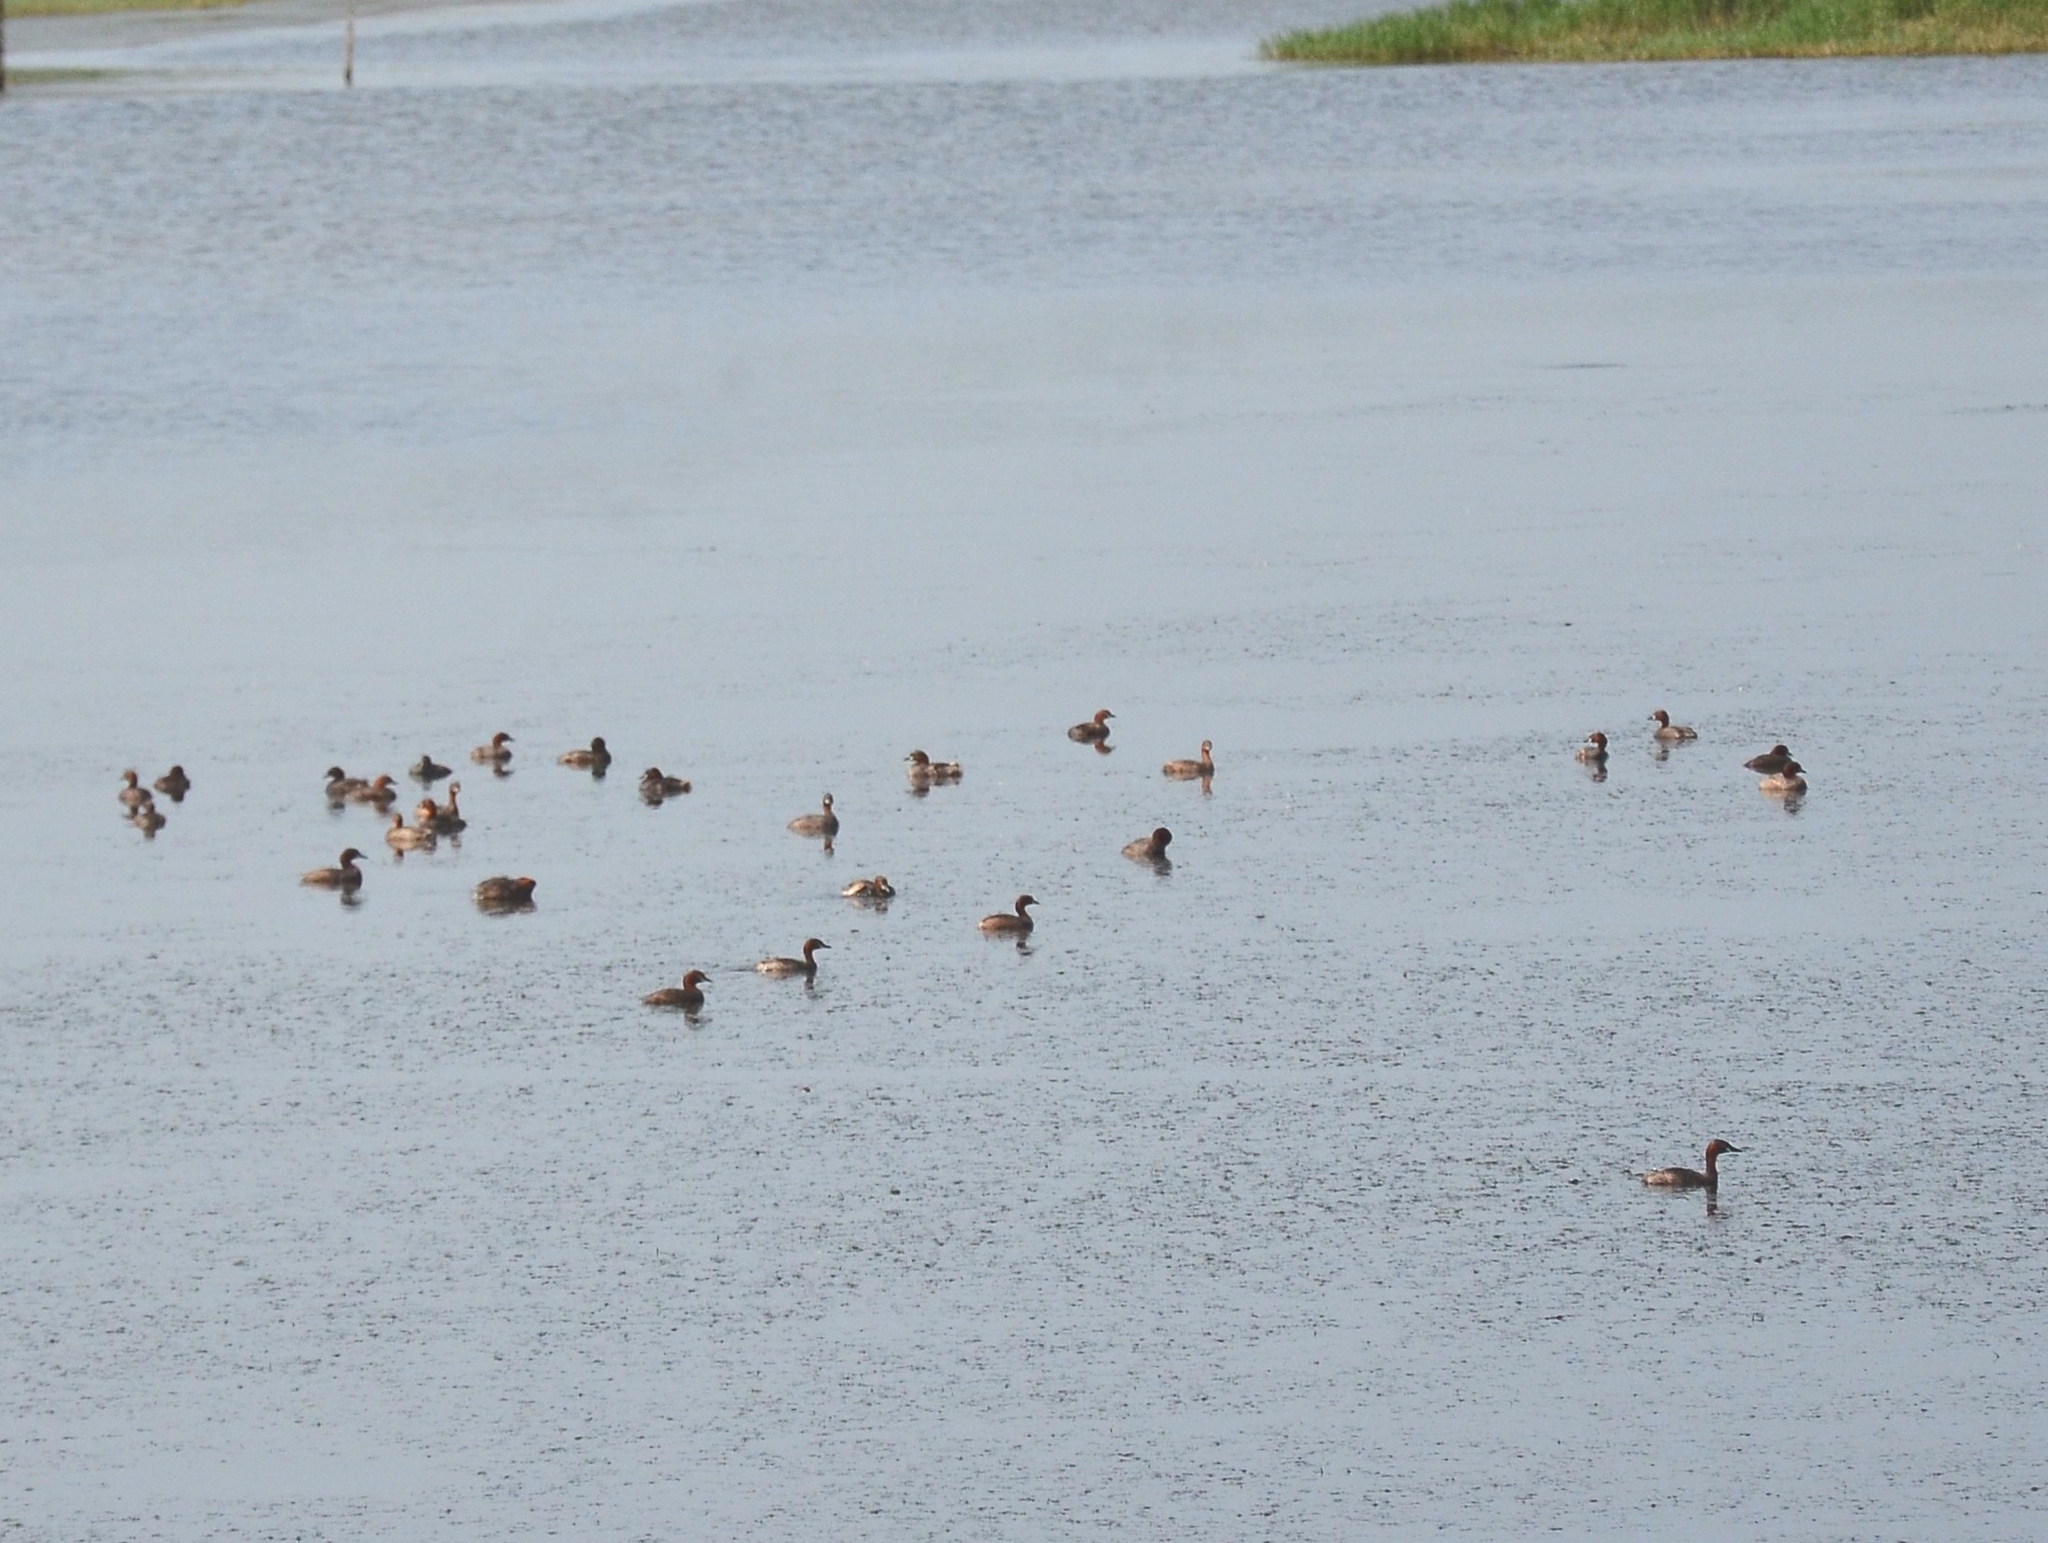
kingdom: Animalia
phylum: Chordata
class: Aves
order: Podicipediformes
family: Podicipedidae
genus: Tachybaptus
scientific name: Tachybaptus ruficollis
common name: Little grebe
